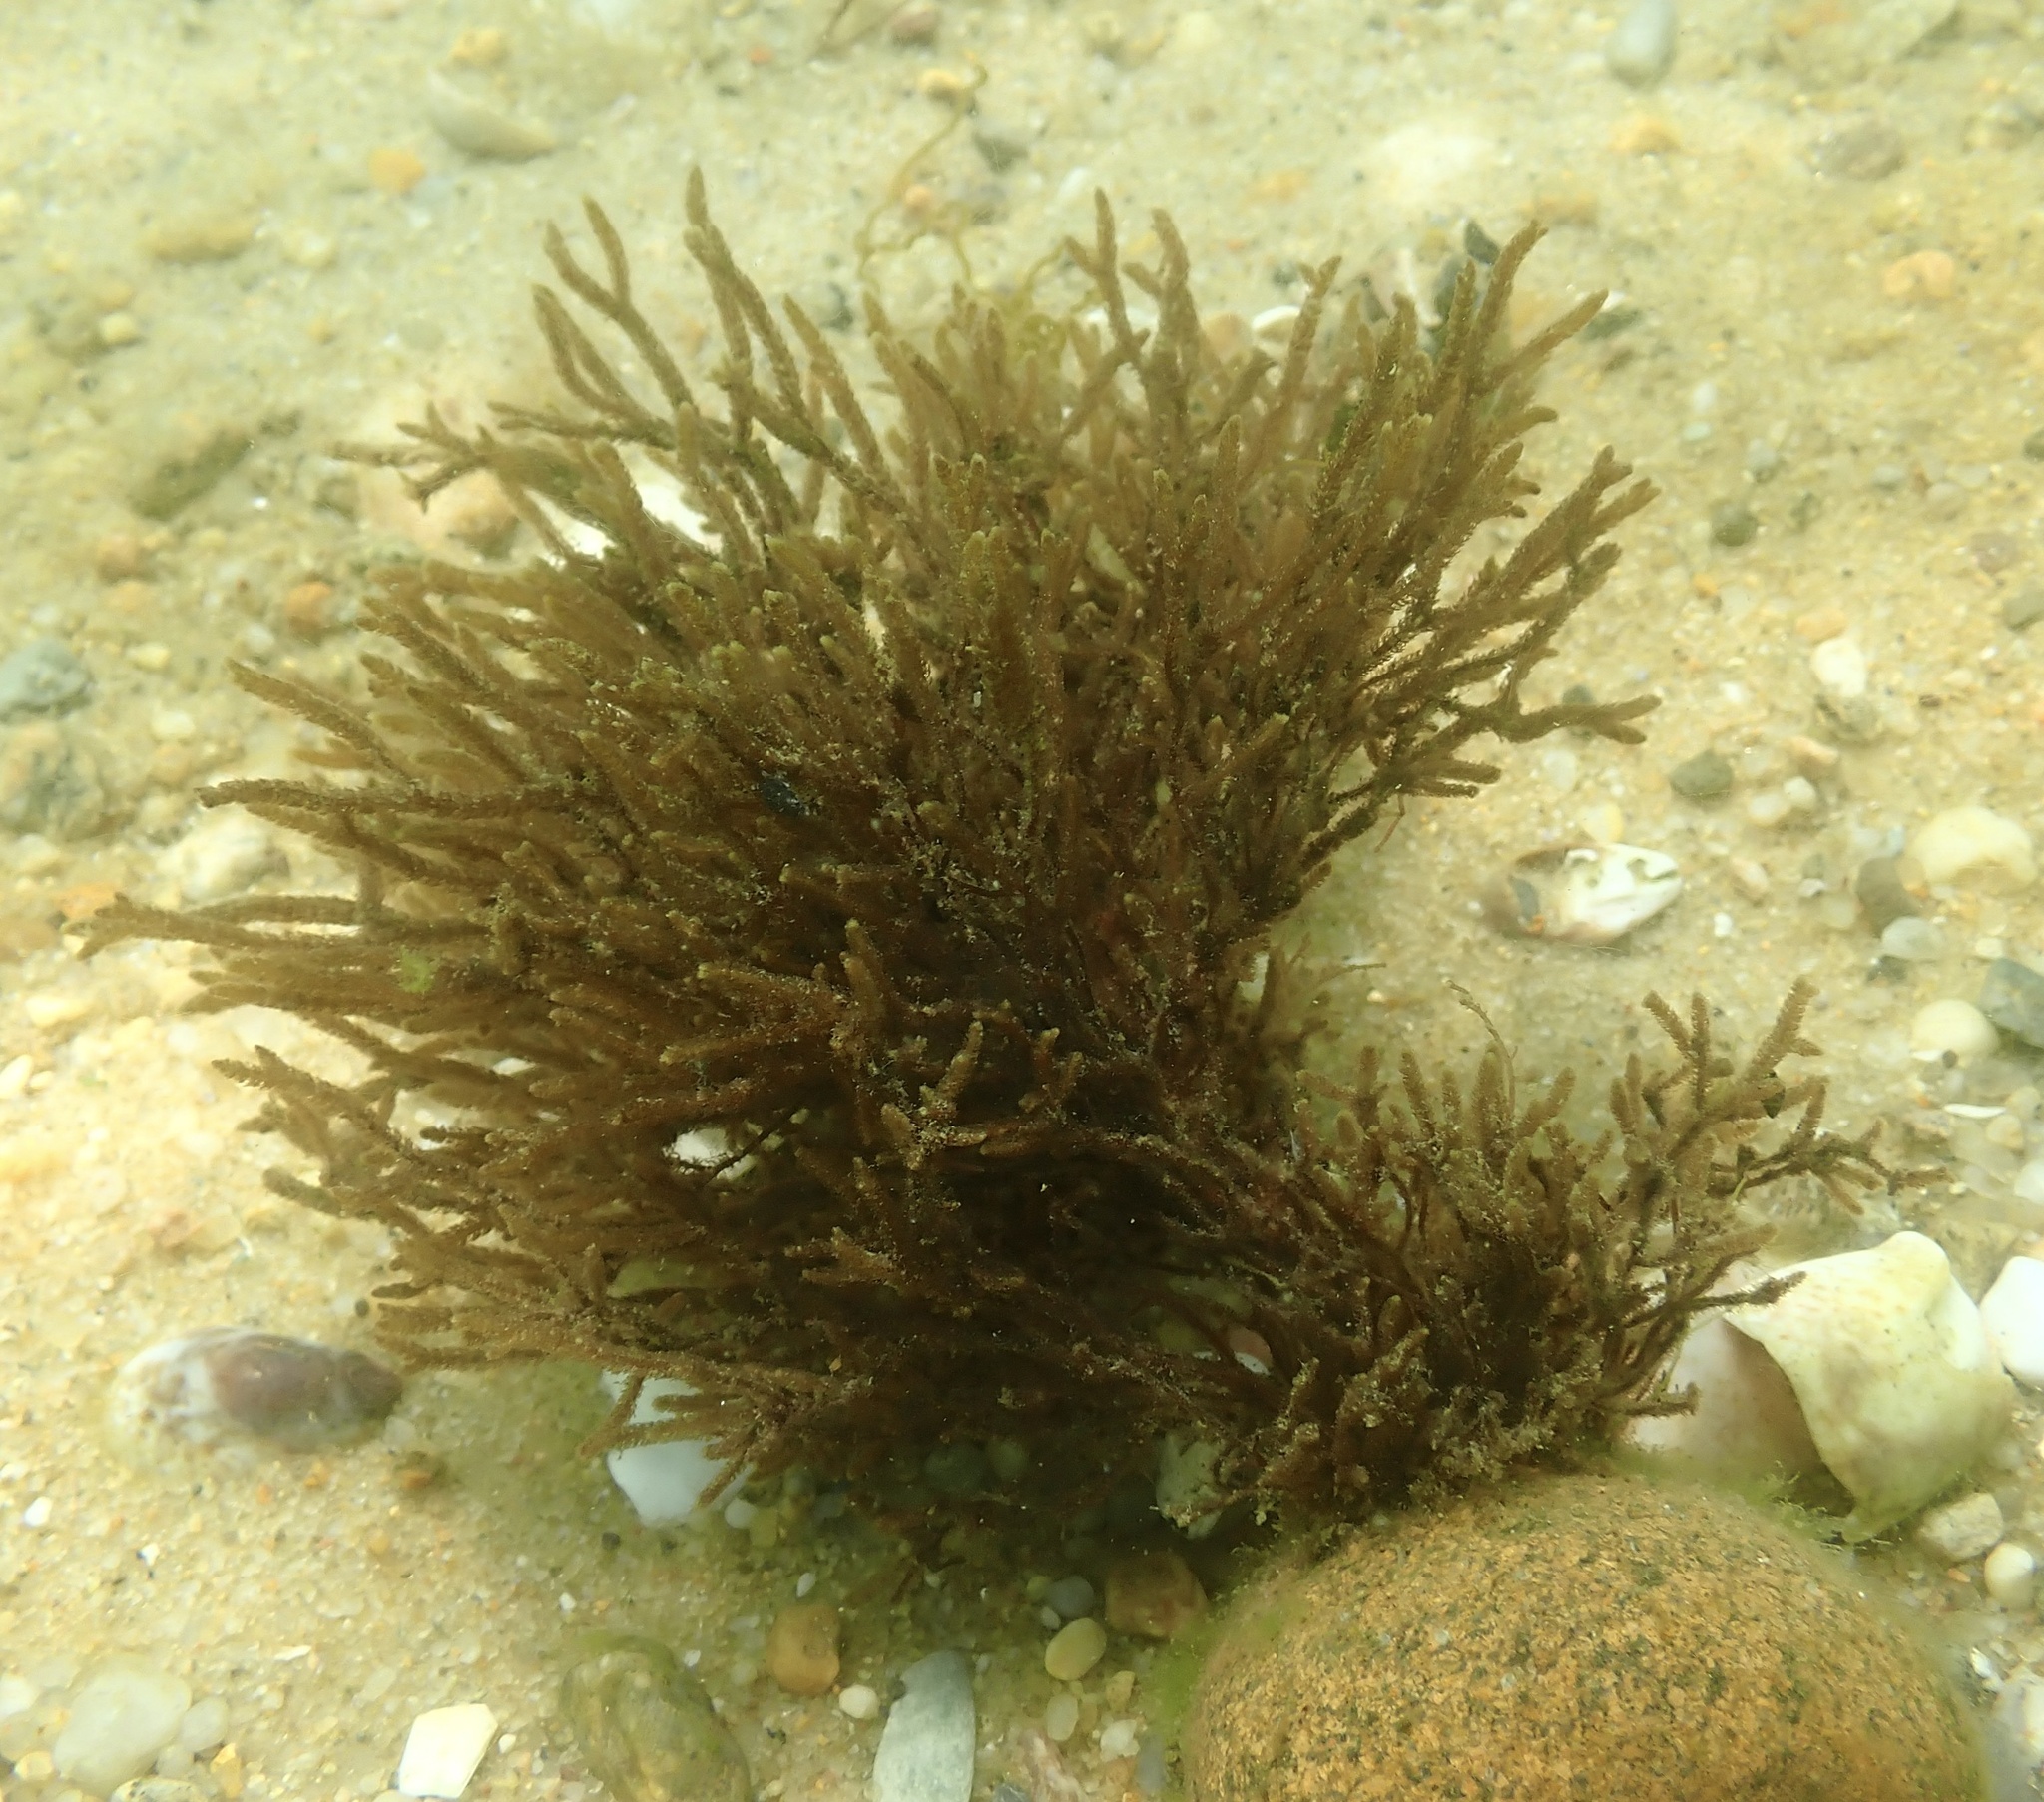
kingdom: Chromista
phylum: Ochrophyta
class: Phaeophyceae
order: Sphacelariales
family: Cladostephaceae
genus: Cladostephus
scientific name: Cladostephus spongiosus
